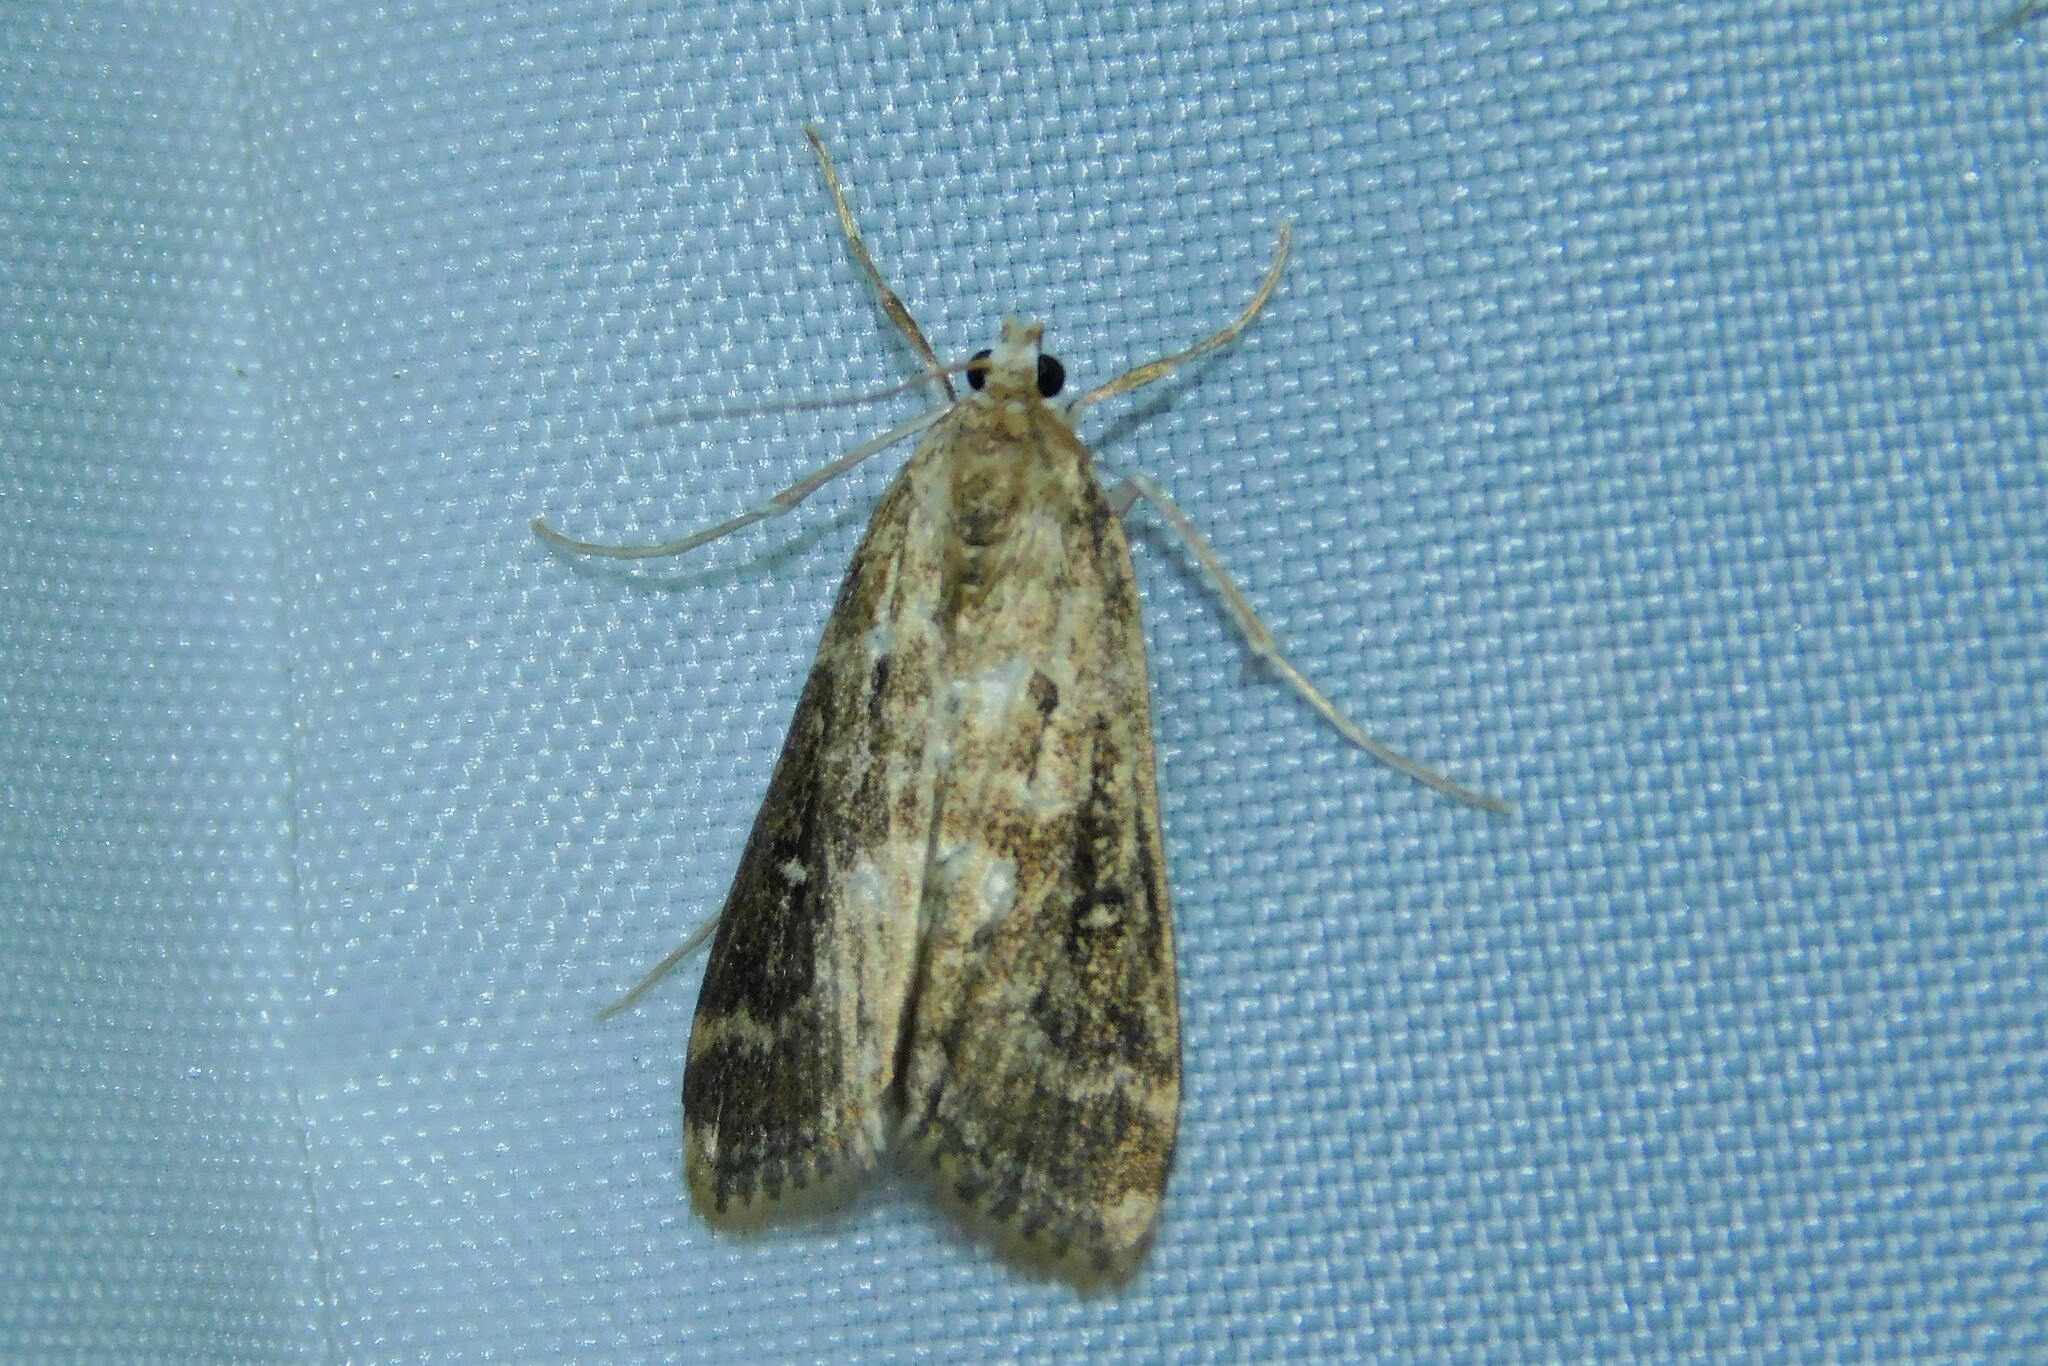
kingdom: Animalia
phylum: Arthropoda
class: Insecta
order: Lepidoptera
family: Crambidae
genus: Parapoynx
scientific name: Parapoynx stratiotata
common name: Ringed china-mark
